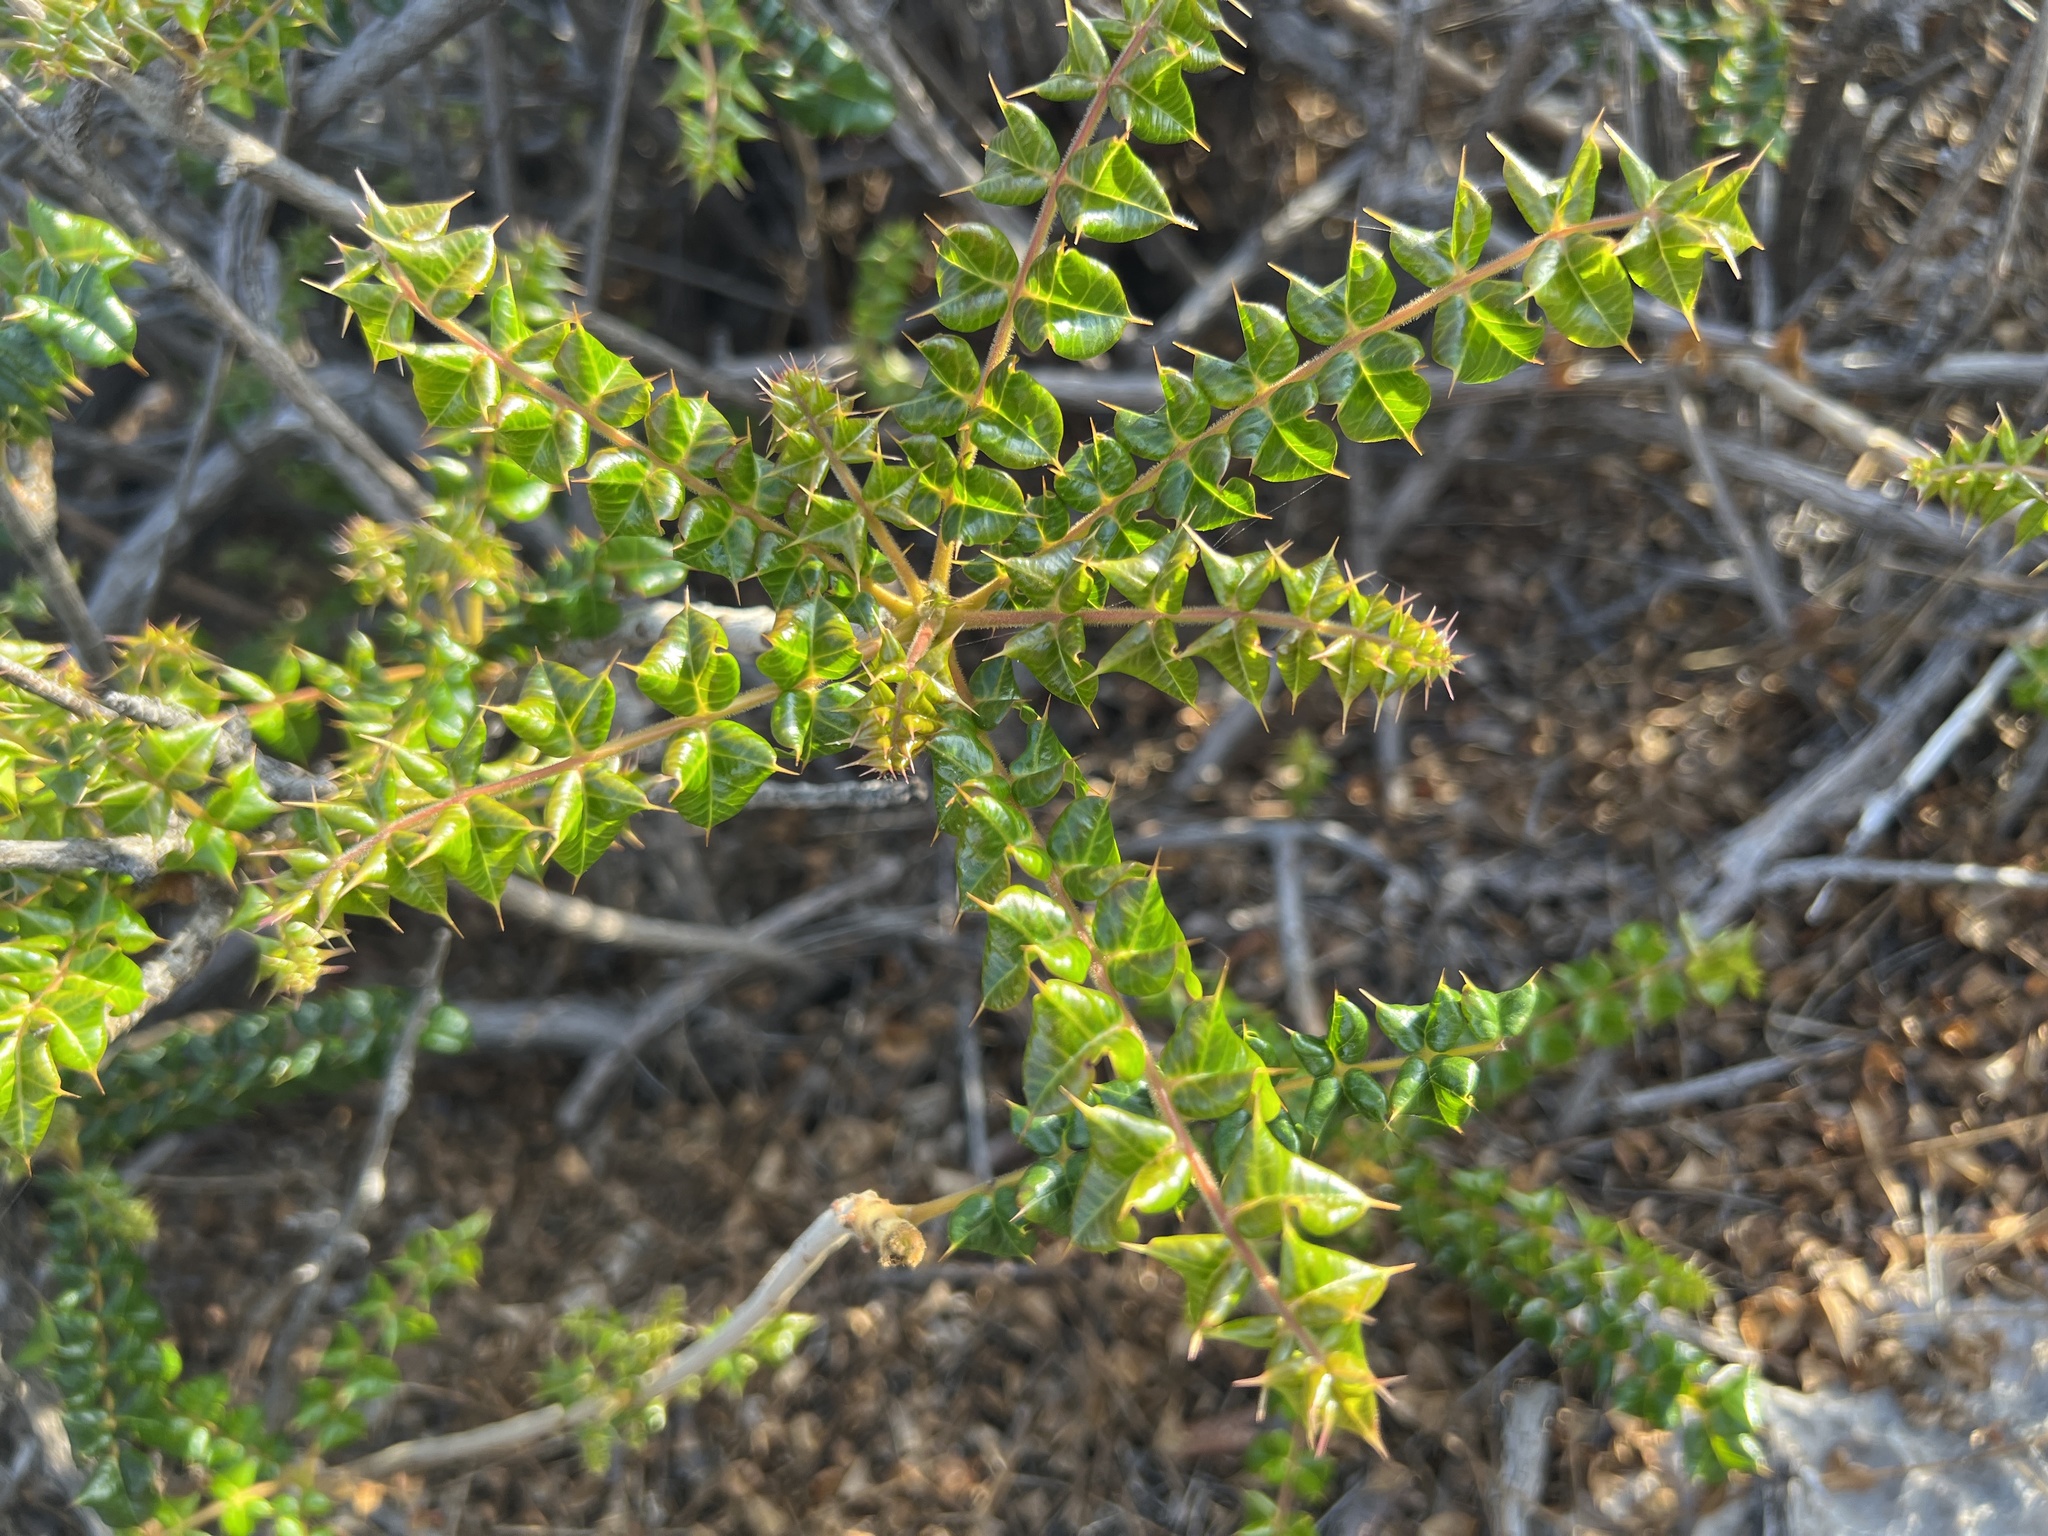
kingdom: Plantae
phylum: Tracheophyta
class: Magnoliopsida
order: Sapindales
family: Anacardiaceae
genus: Comocladia
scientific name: Comocladia dodonaea
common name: Poison ash
